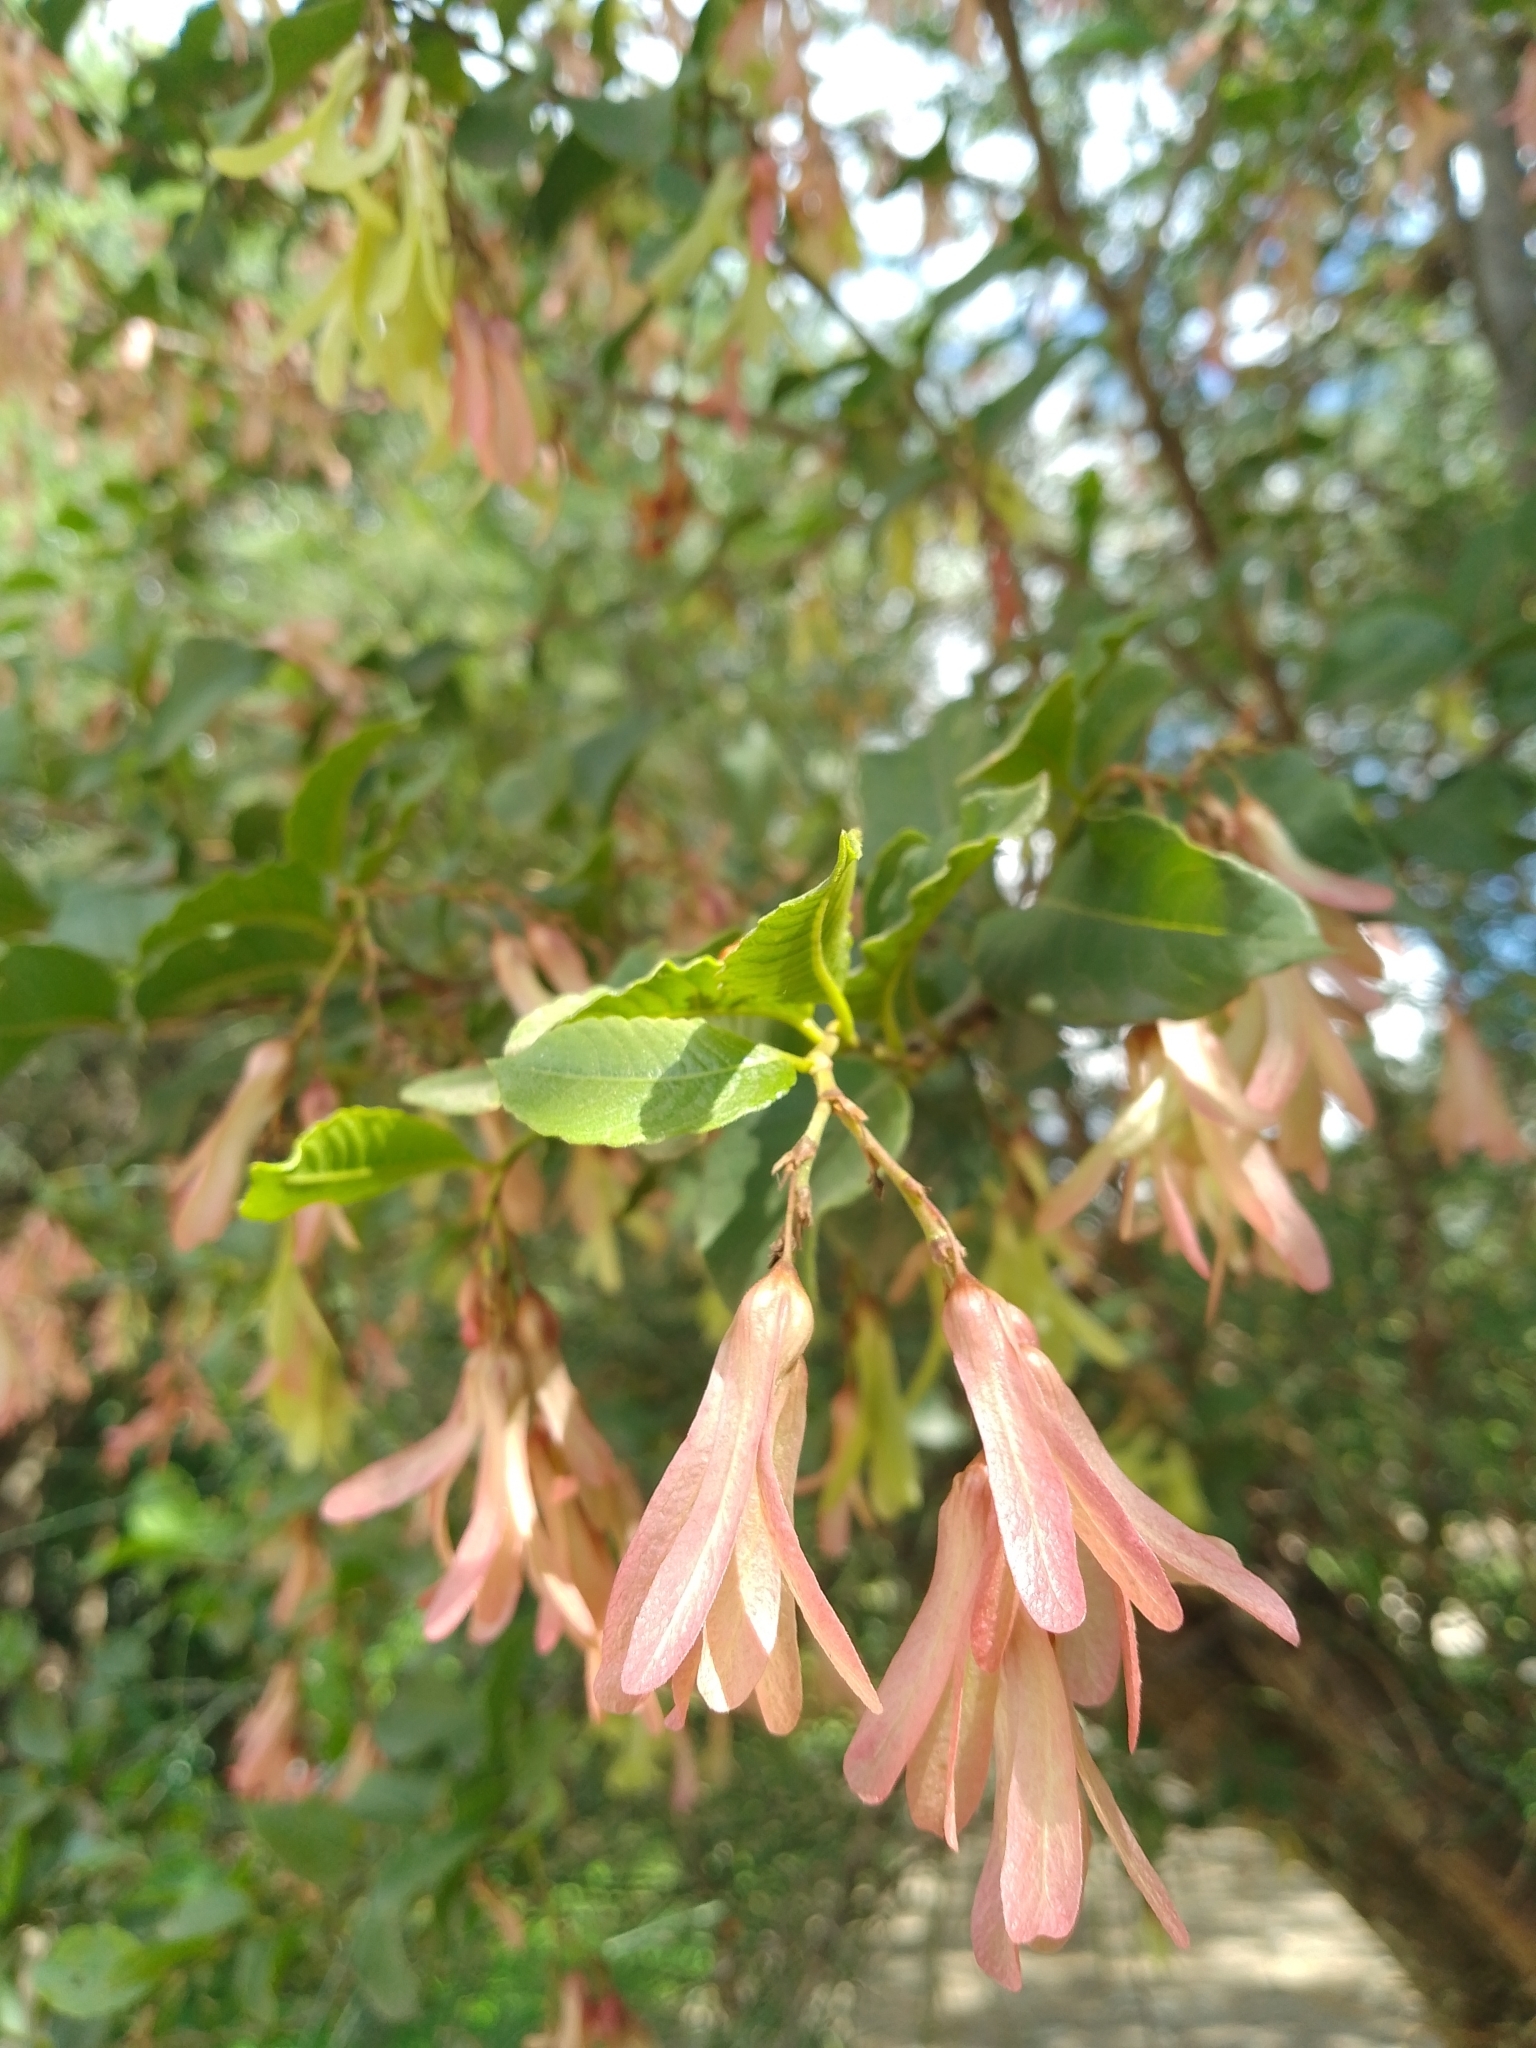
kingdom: Plantae
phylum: Tracheophyta
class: Magnoliopsida
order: Caryophyllales
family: Polygonaceae
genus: Ruprechtia
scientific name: Ruprechtia apetala
